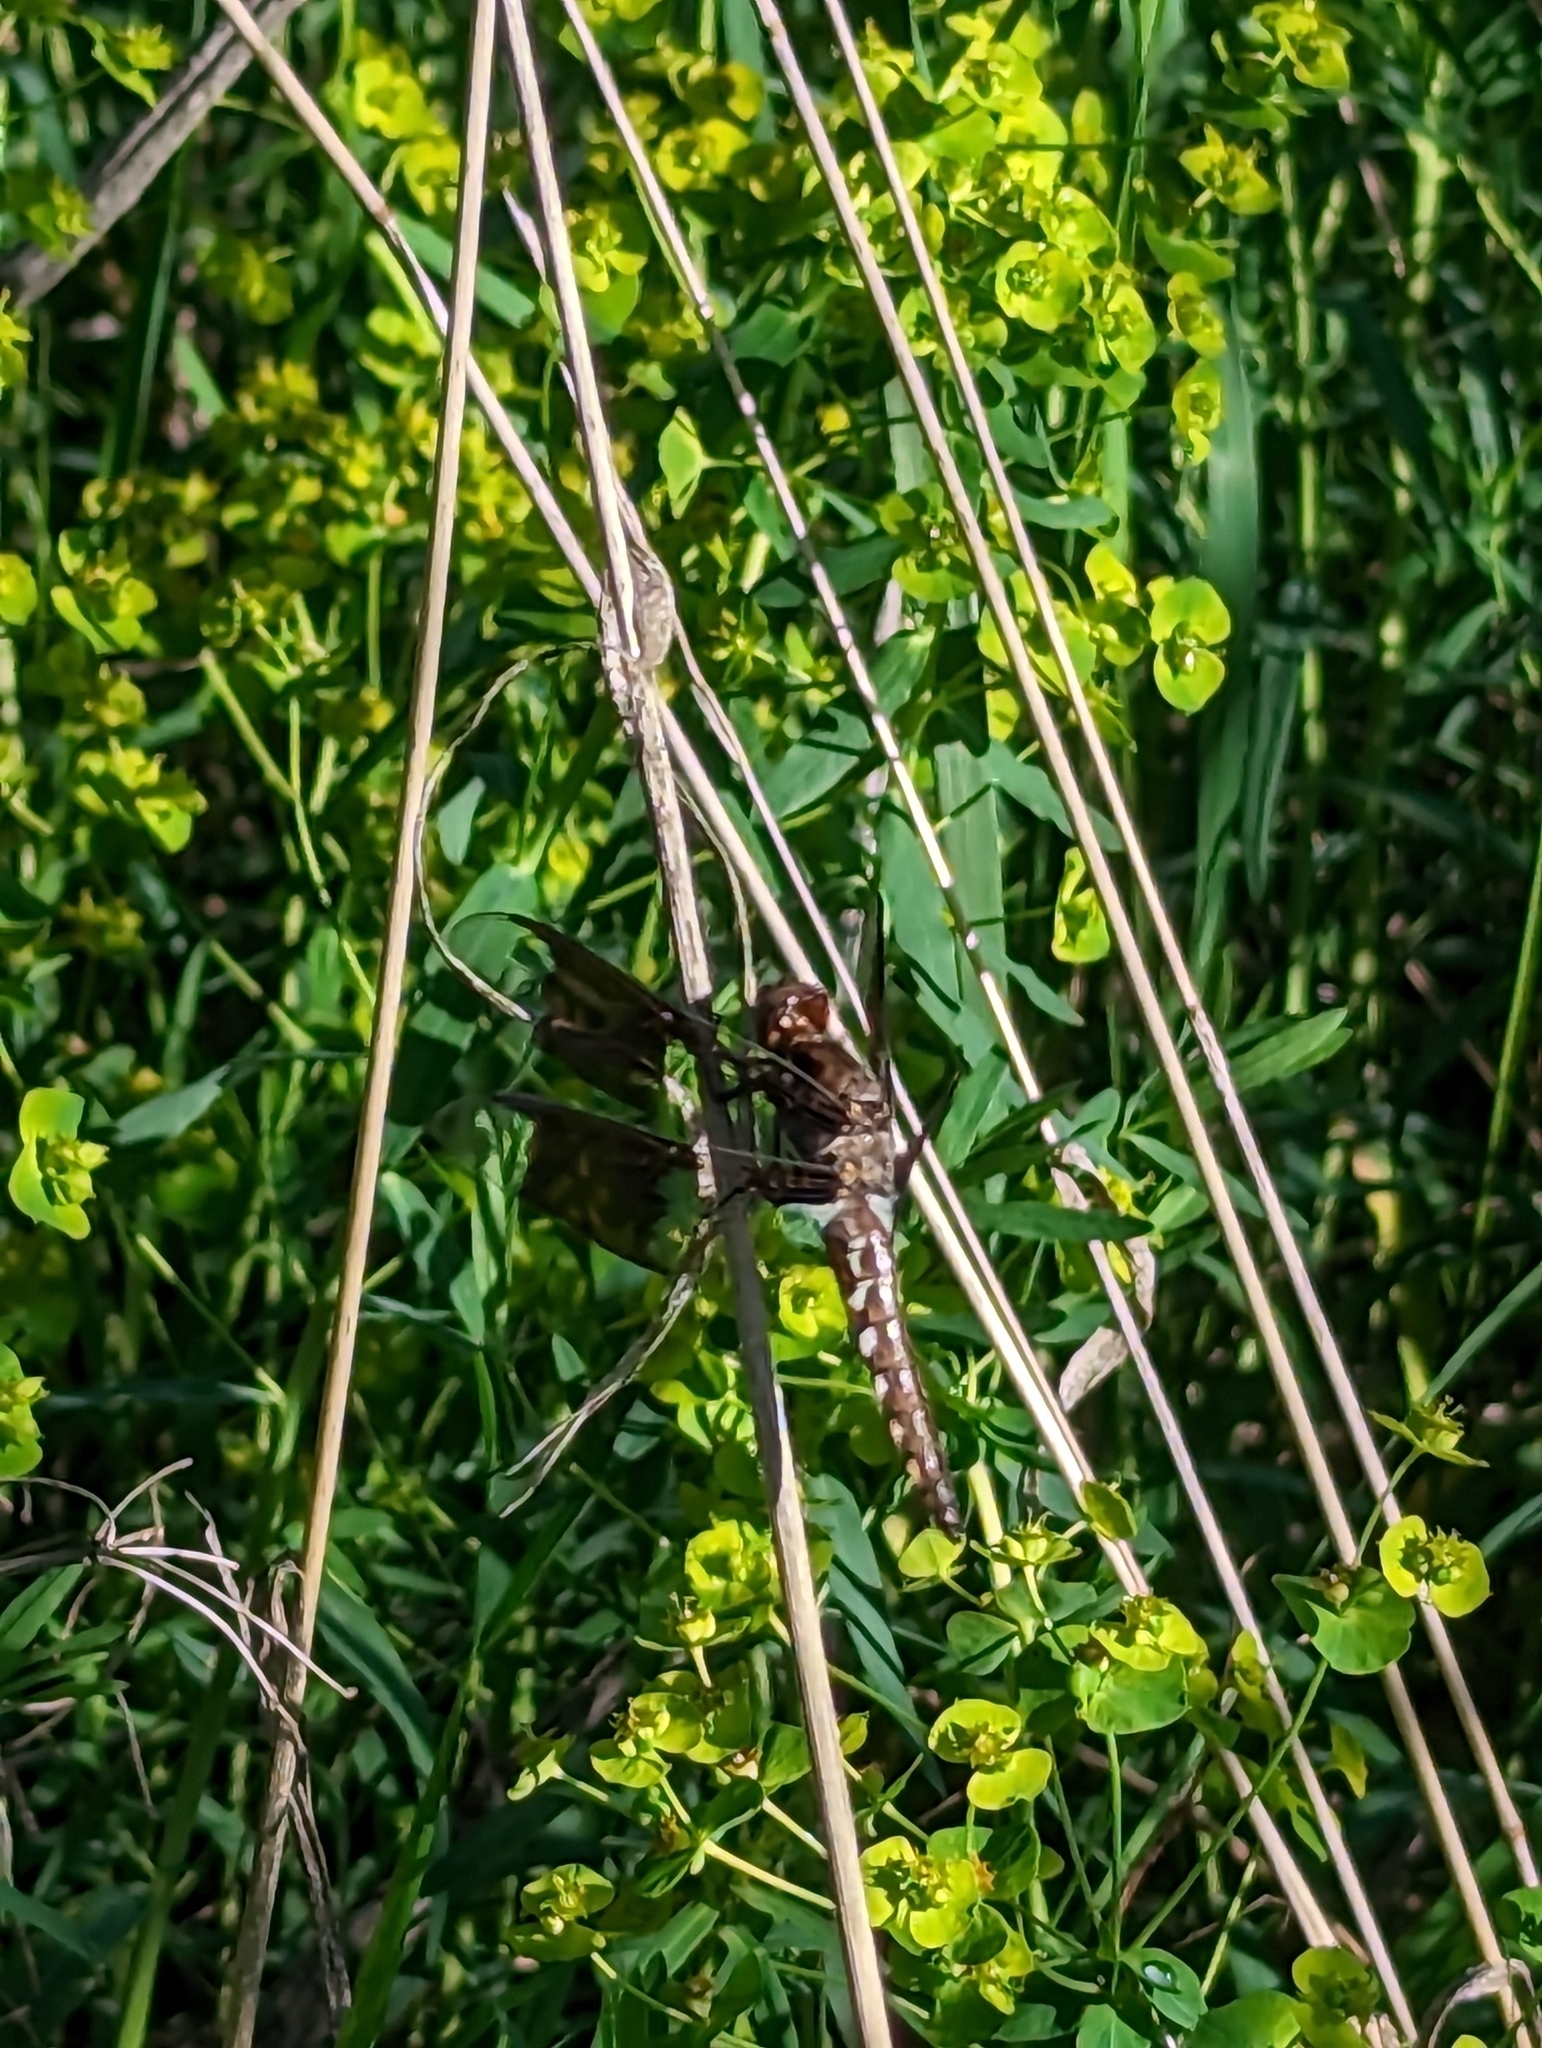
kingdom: Animalia
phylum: Arthropoda
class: Insecta
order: Odonata
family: Libellulidae
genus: Plathemis
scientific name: Plathemis lydia
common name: Common whitetail
